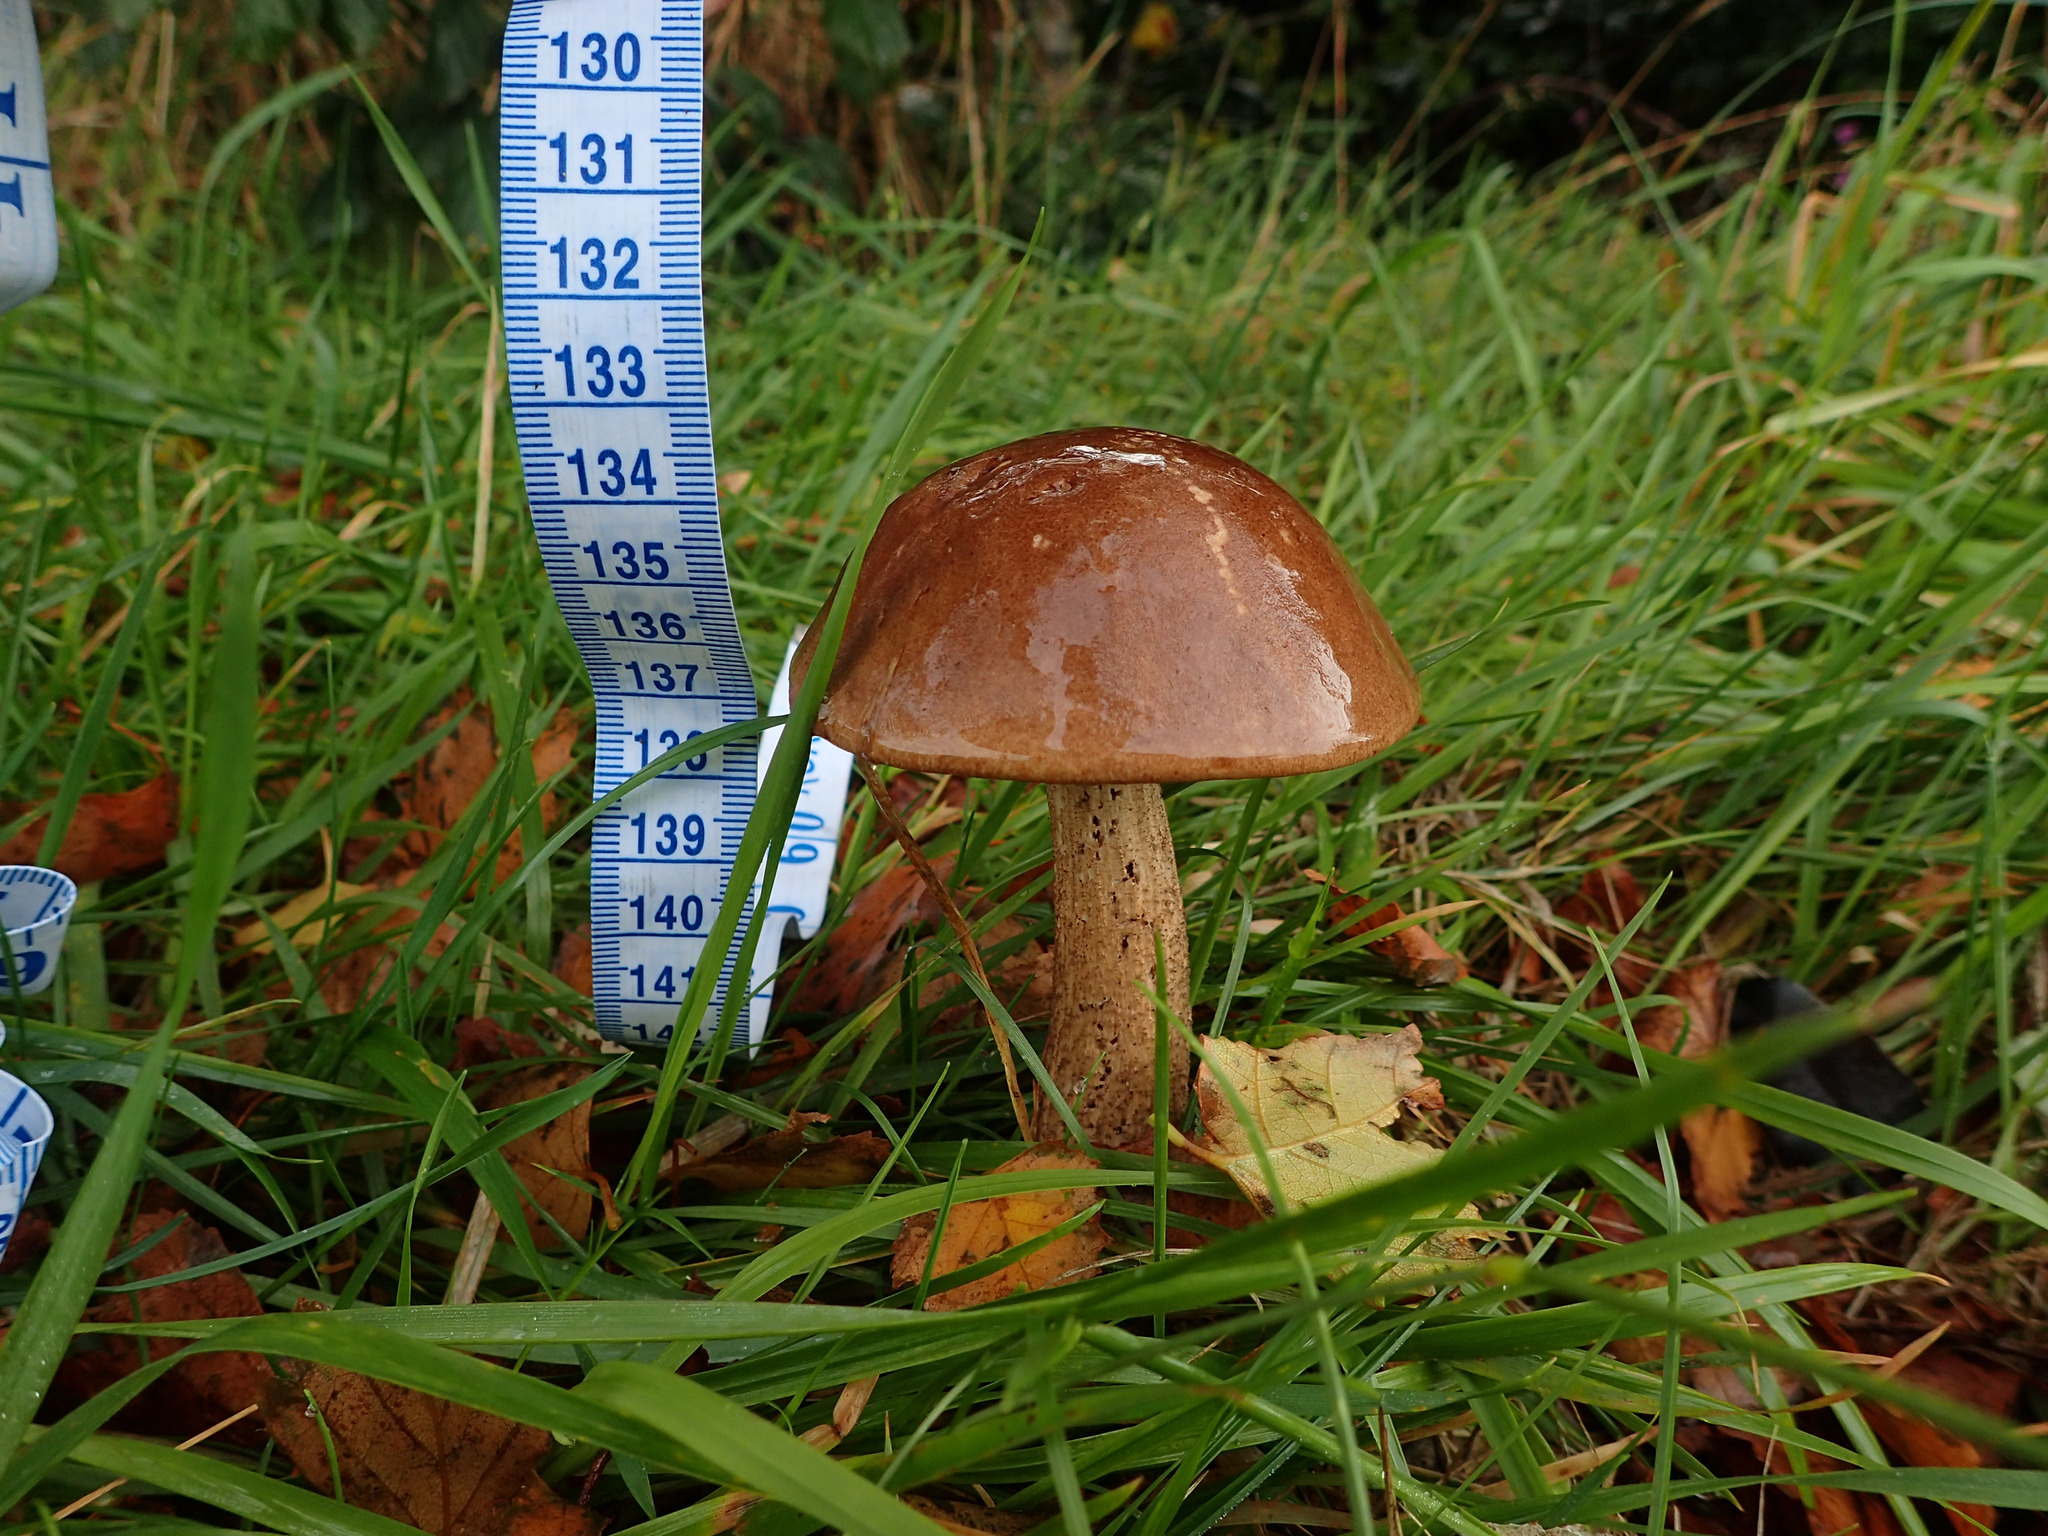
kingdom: Fungi
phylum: Basidiomycota
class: Agaricomycetes
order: Boletales
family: Boletaceae
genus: Leccinum
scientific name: Leccinum scabrum
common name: Blushing bolete
